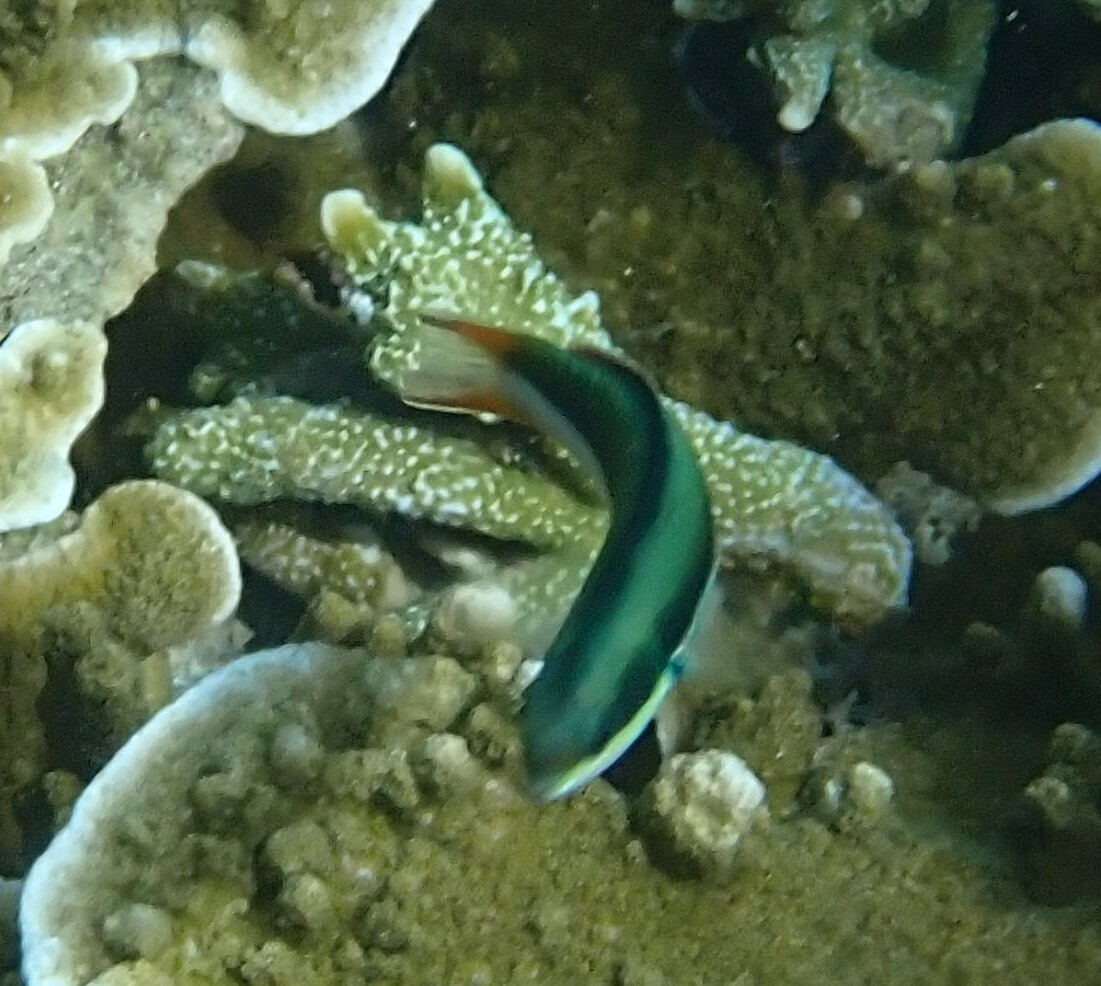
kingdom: Animalia
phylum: Chordata
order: Perciformes
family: Labridae
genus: Thalassoma
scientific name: Thalassoma amblycephalum
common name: Bluehead wrasse
